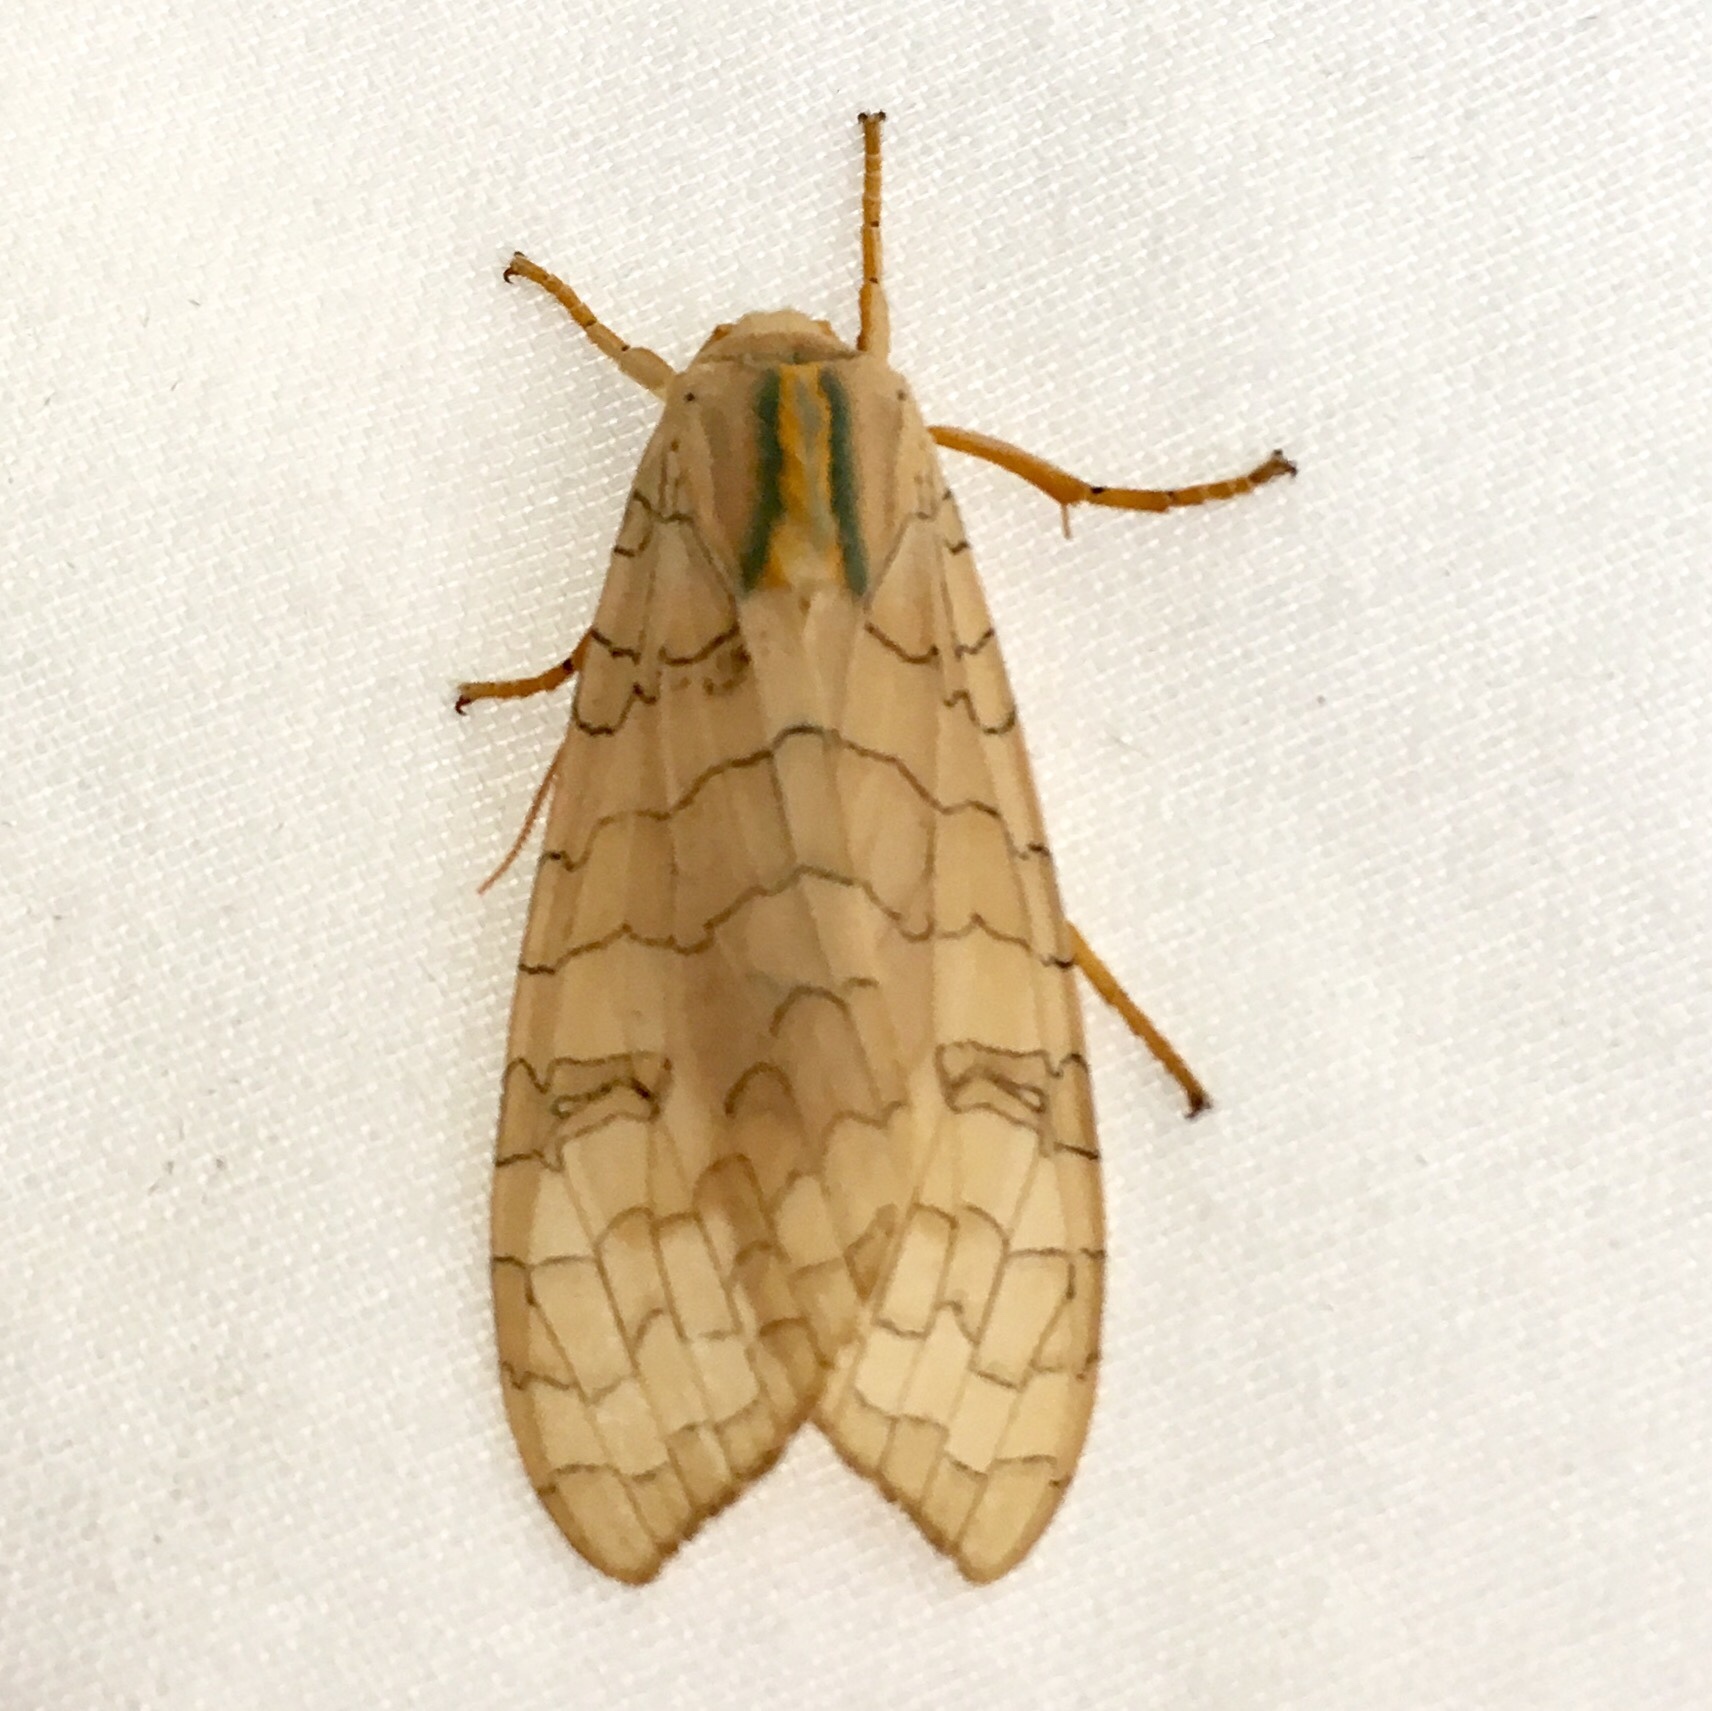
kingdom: Animalia
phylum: Arthropoda
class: Insecta
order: Lepidoptera
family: Erebidae
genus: Halysidota
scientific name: Halysidota
